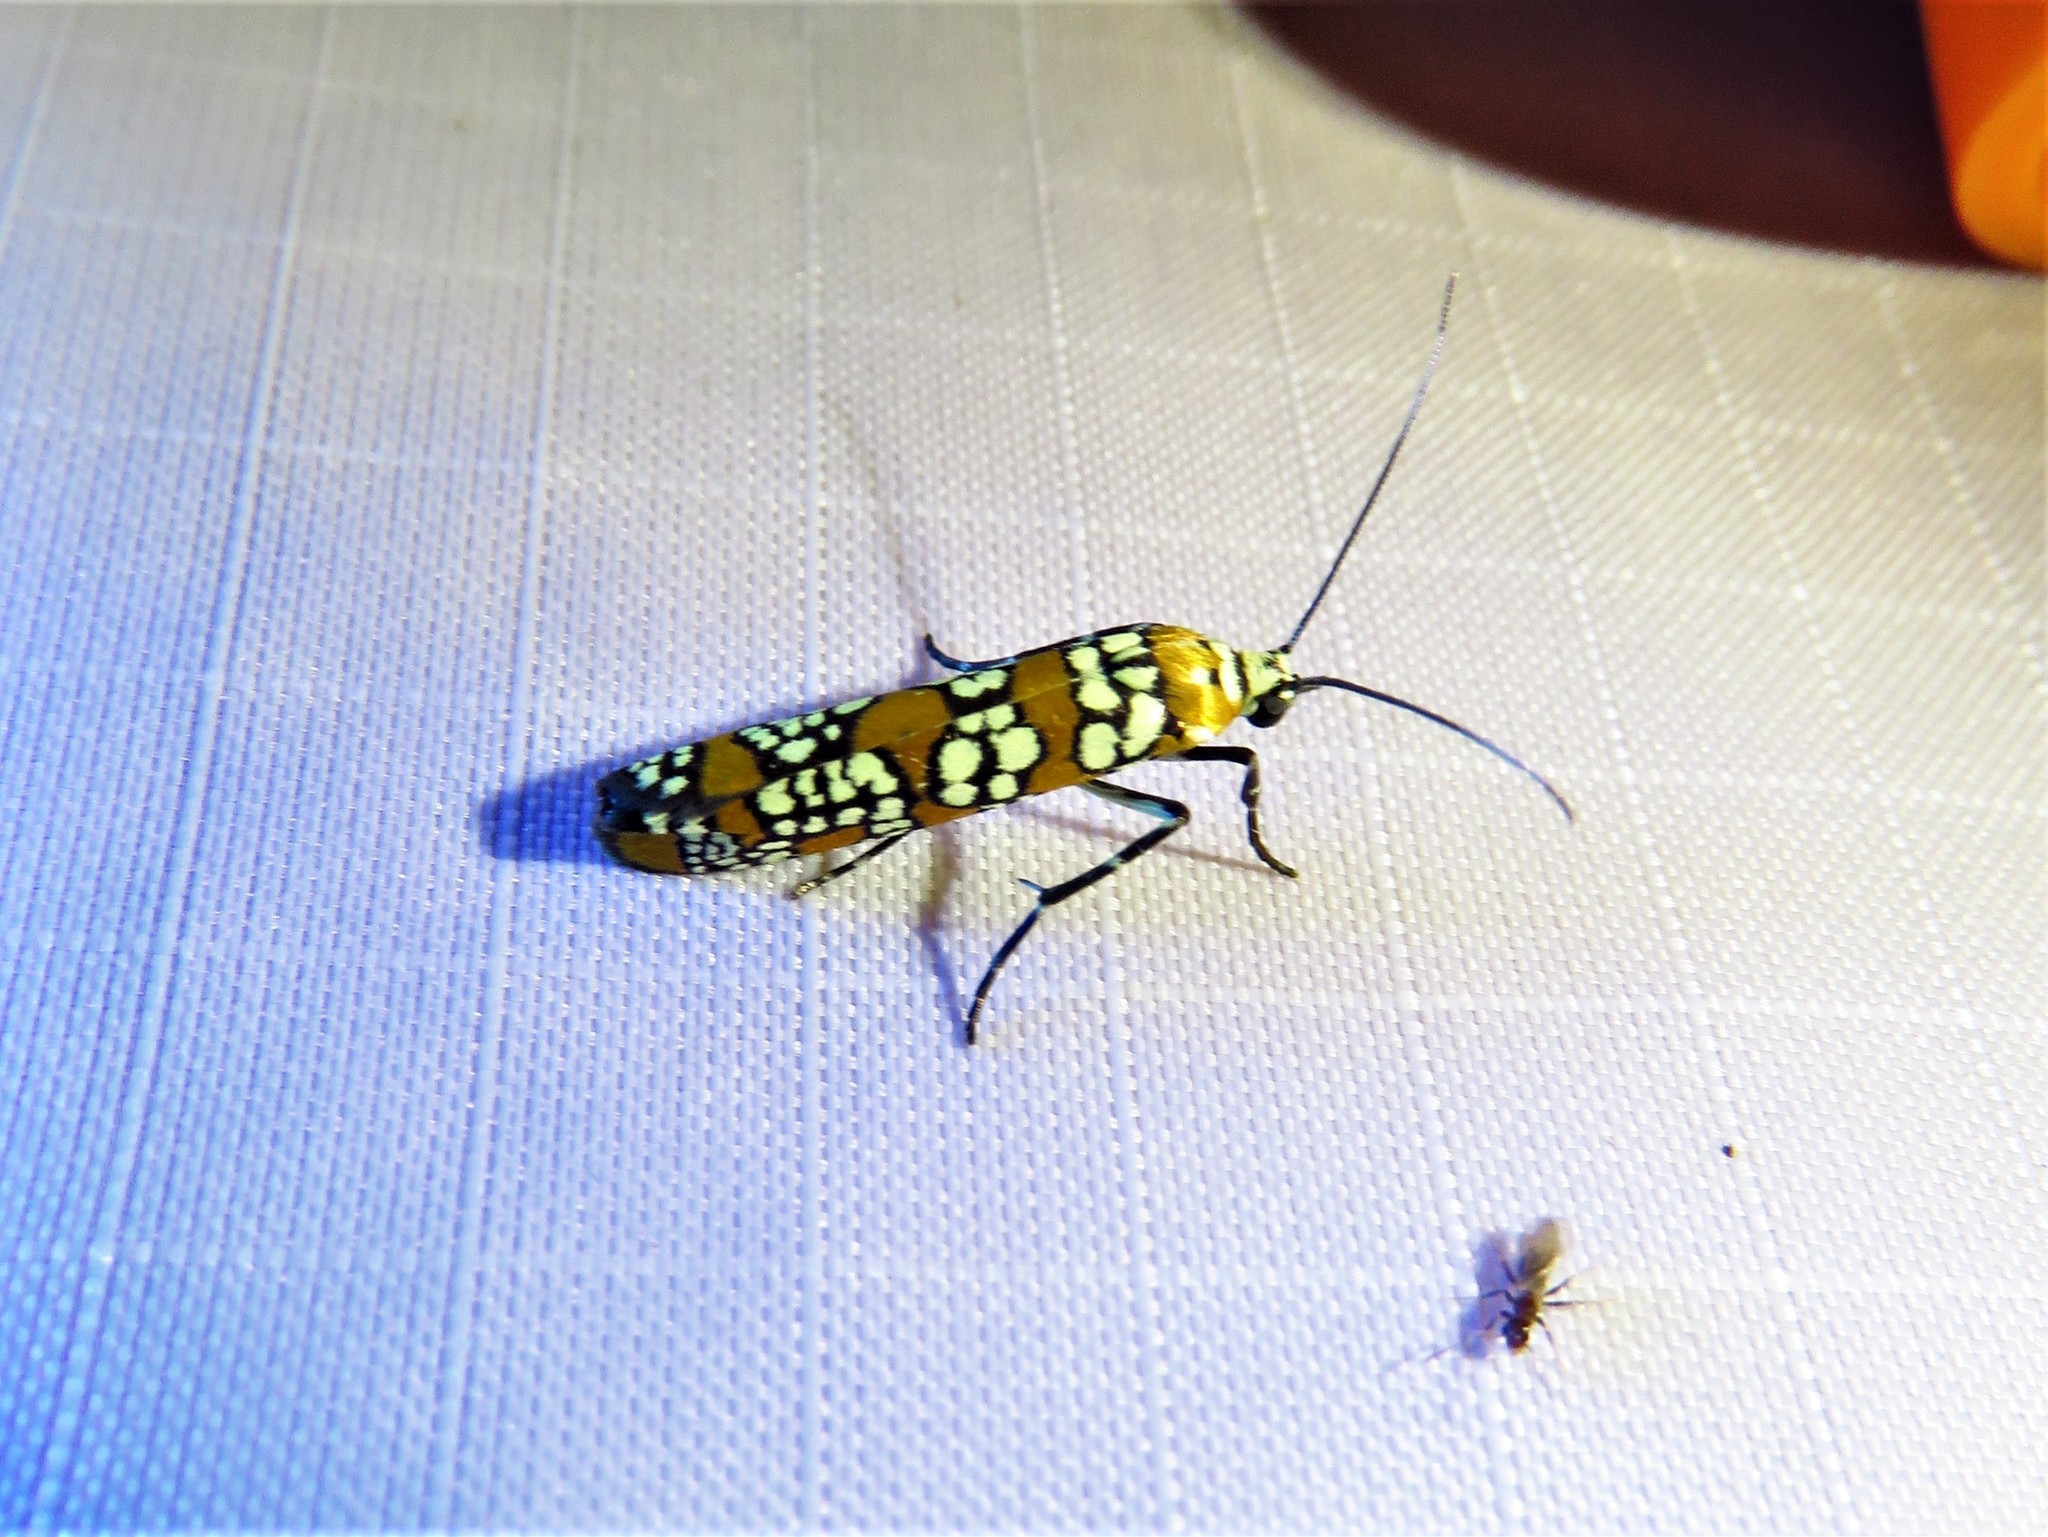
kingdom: Animalia
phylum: Arthropoda
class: Insecta
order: Lepidoptera
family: Attevidae
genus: Atteva
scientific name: Atteva punctella
